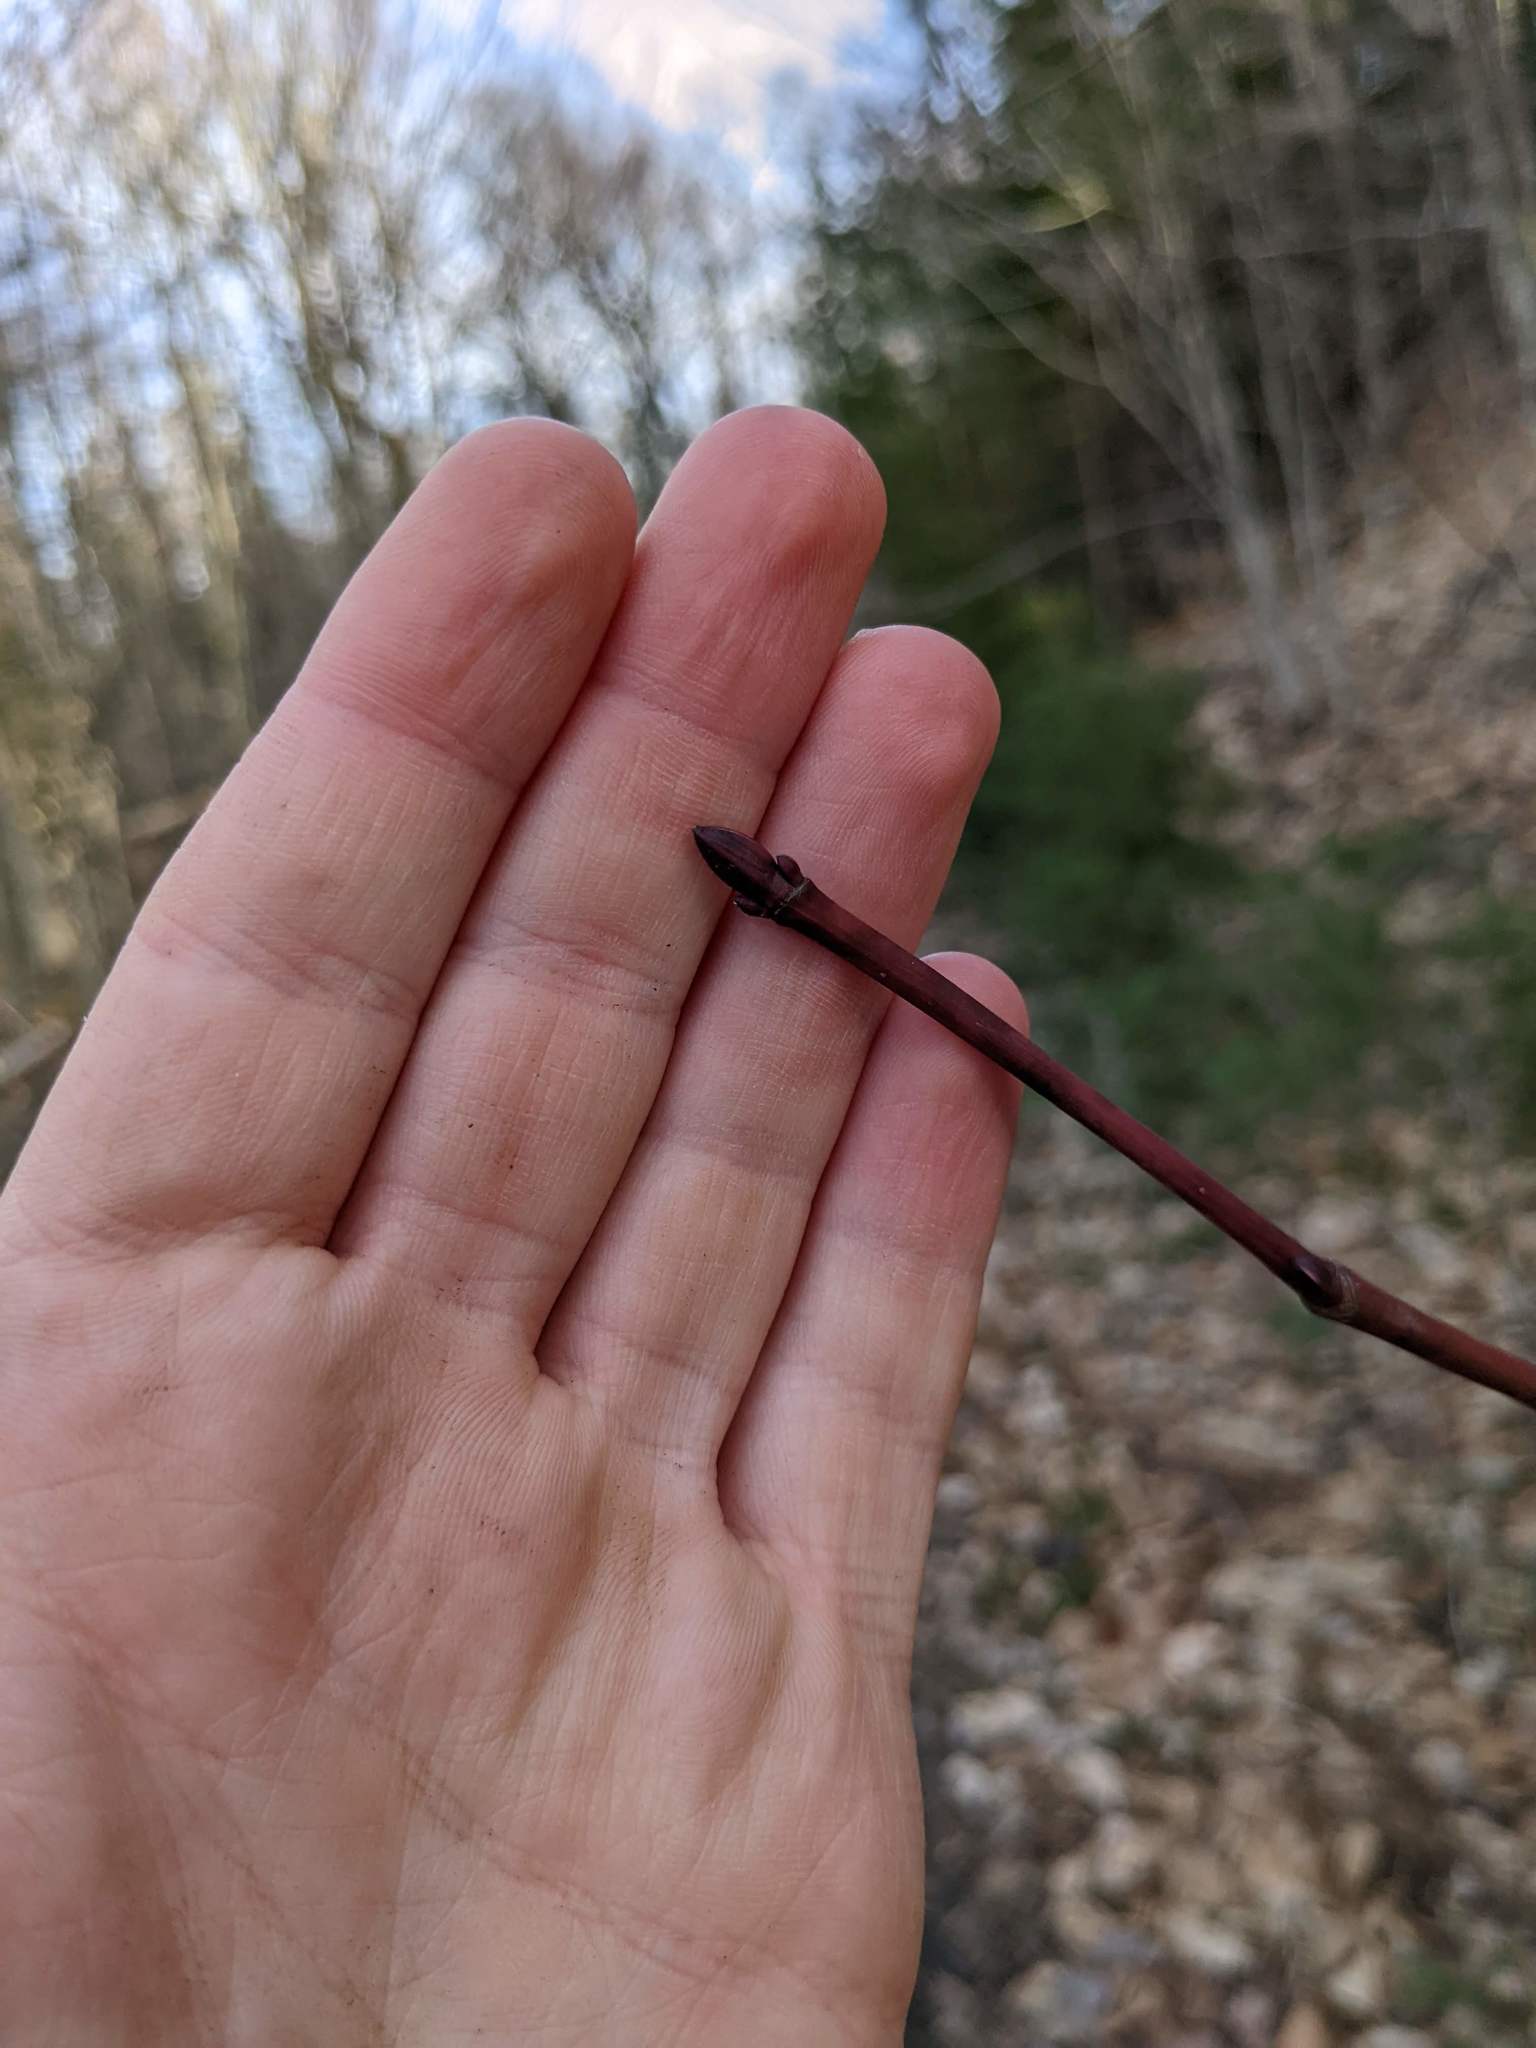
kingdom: Plantae
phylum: Tracheophyta
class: Magnoliopsida
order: Sapindales
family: Sapindaceae
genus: Acer
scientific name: Acer pensylvanicum
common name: Moosewood
